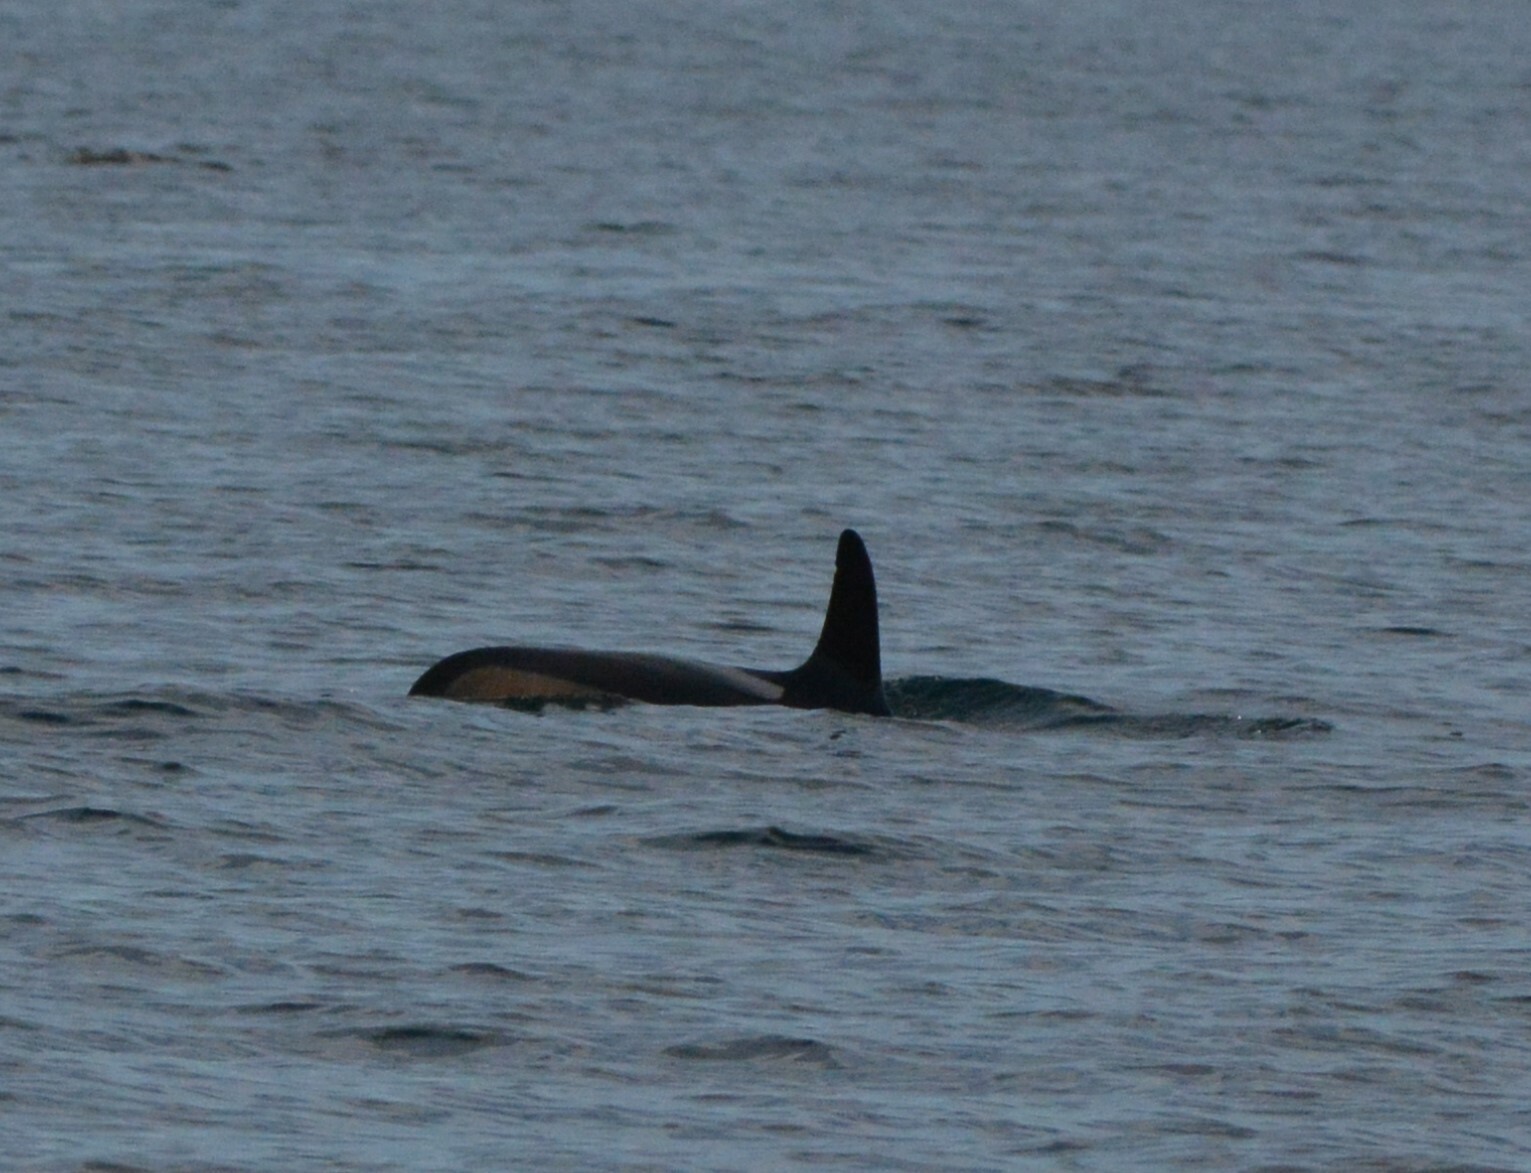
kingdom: Animalia
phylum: Chordata
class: Mammalia
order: Cetacea
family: Delphinidae
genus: Lagenorhynchus
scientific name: Lagenorhynchus acutus
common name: Atlantic white-sided dolphin
